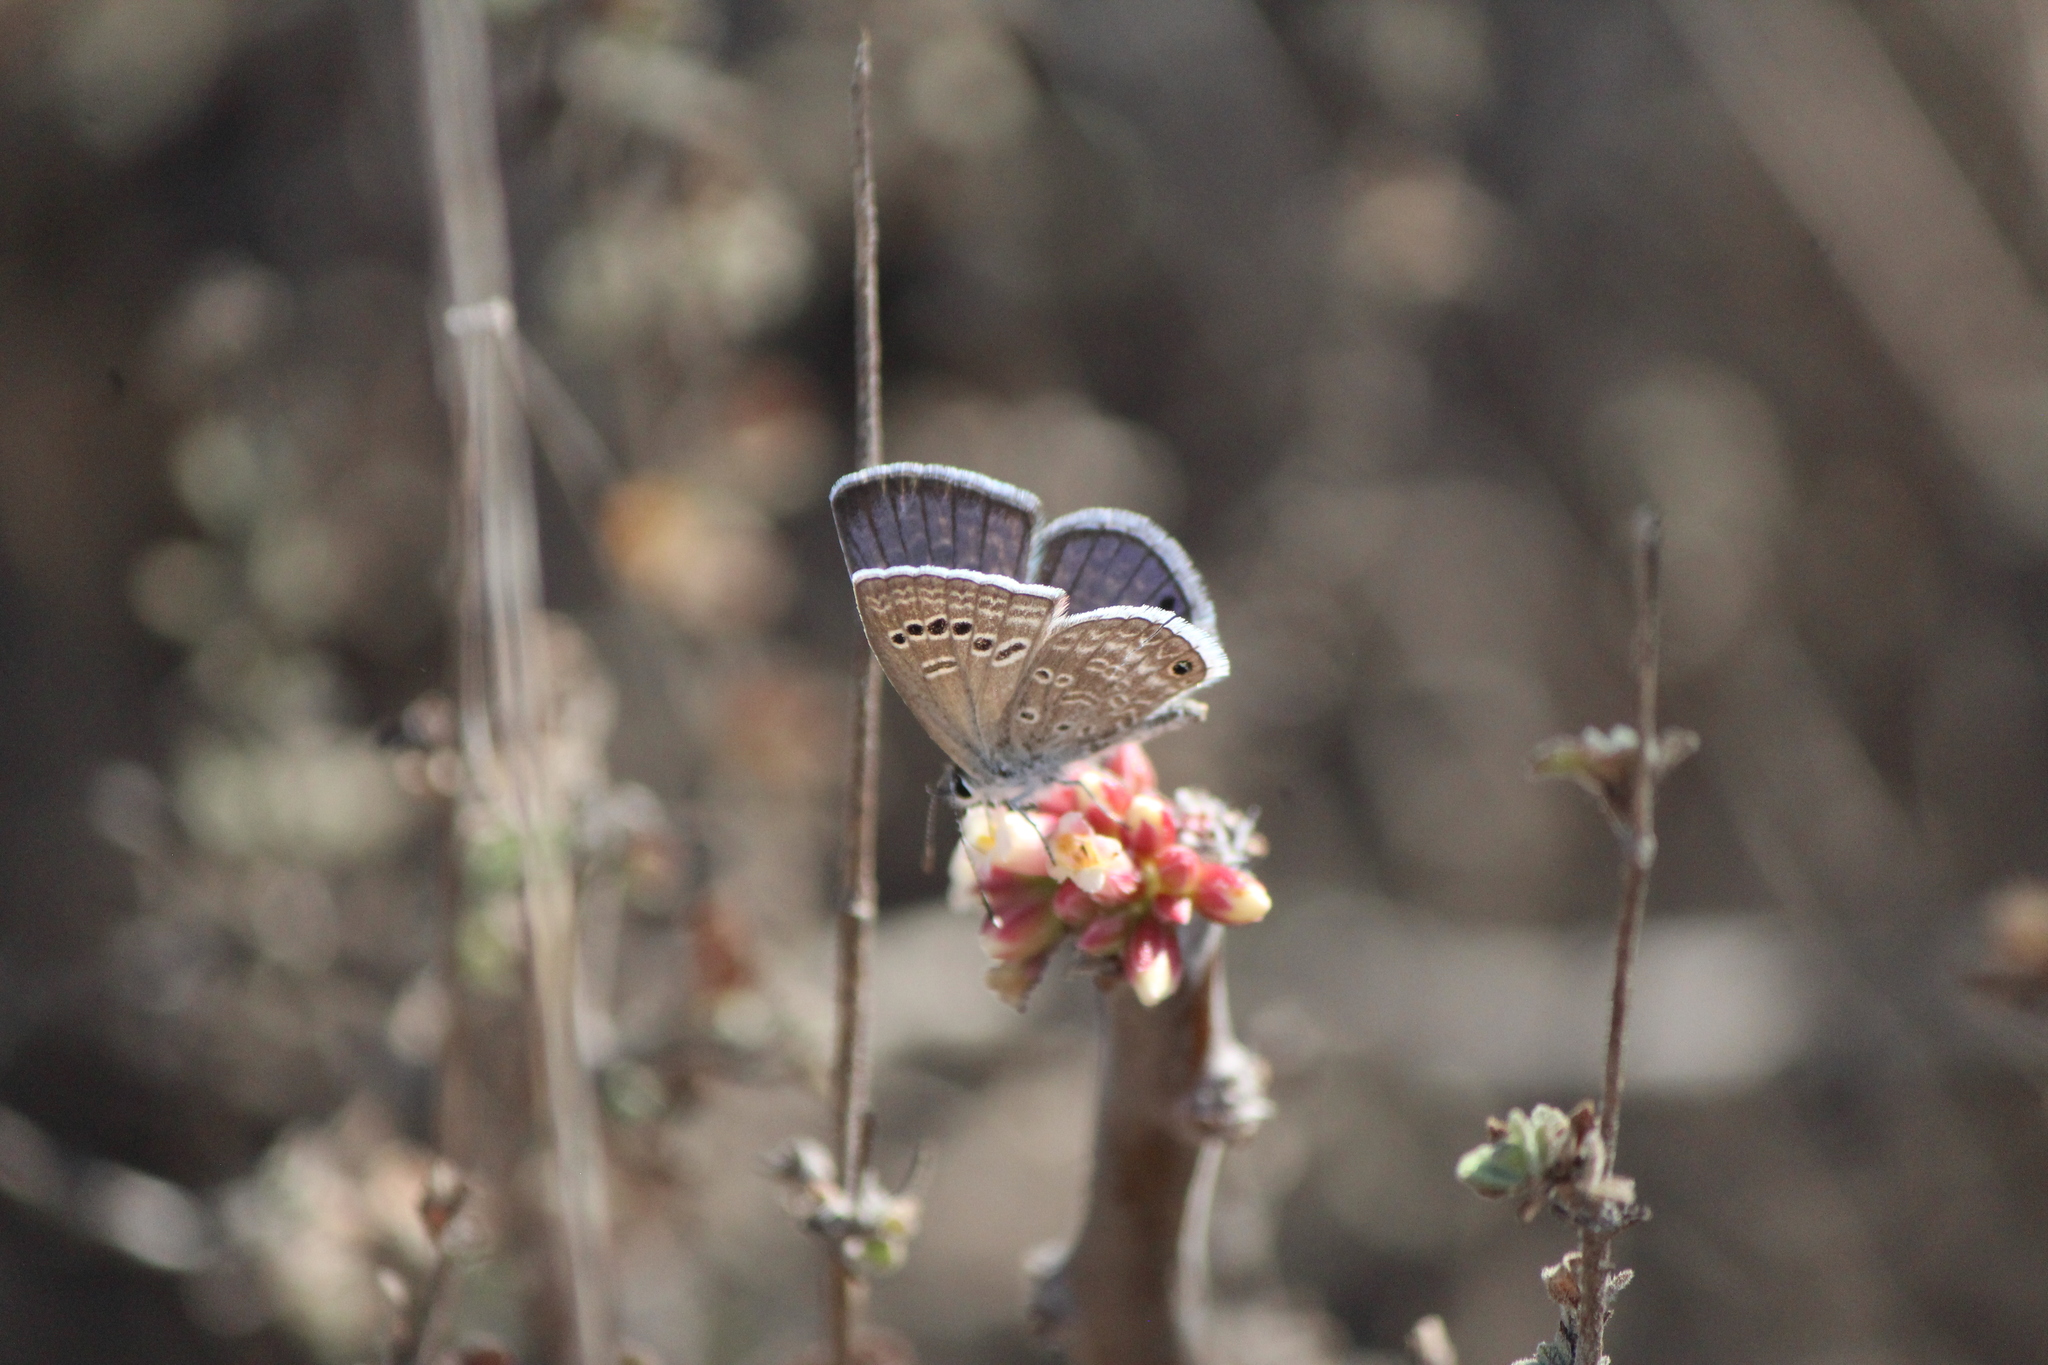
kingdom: Animalia
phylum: Arthropoda
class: Insecta
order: Lepidoptera
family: Lycaenidae
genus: Echinargus
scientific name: Echinargus isola
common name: Reakirt's blue
